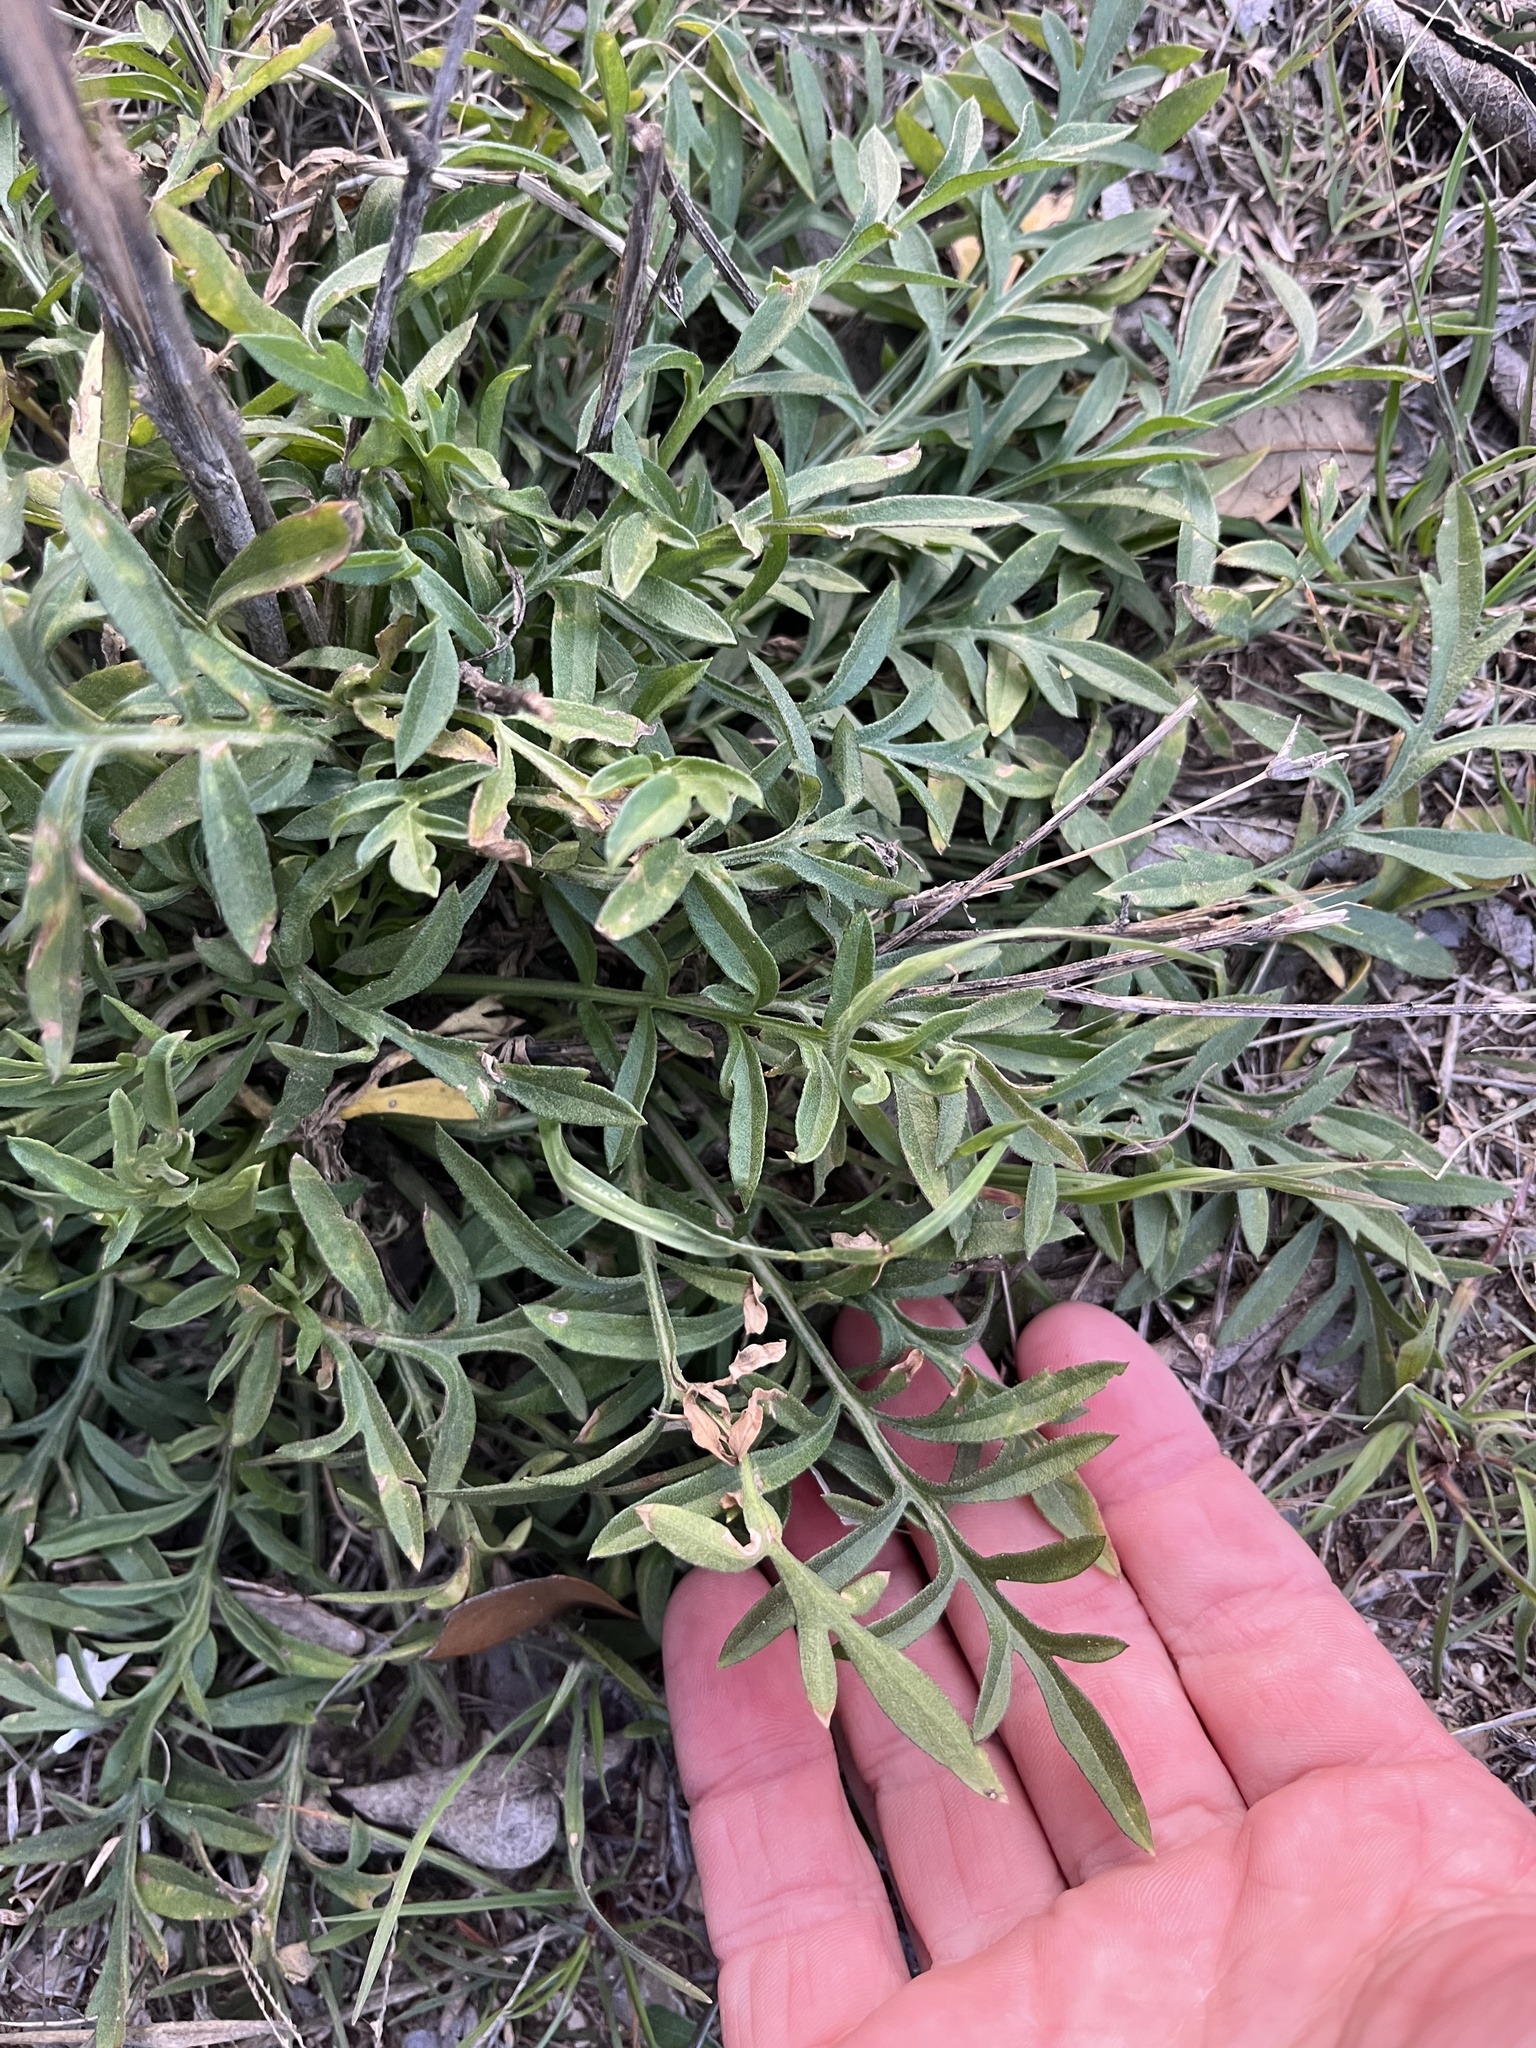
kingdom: Plantae
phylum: Tracheophyta
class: Magnoliopsida
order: Asterales
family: Asteraceae
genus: Ratibida
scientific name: Ratibida columnifera
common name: Prairie coneflower
